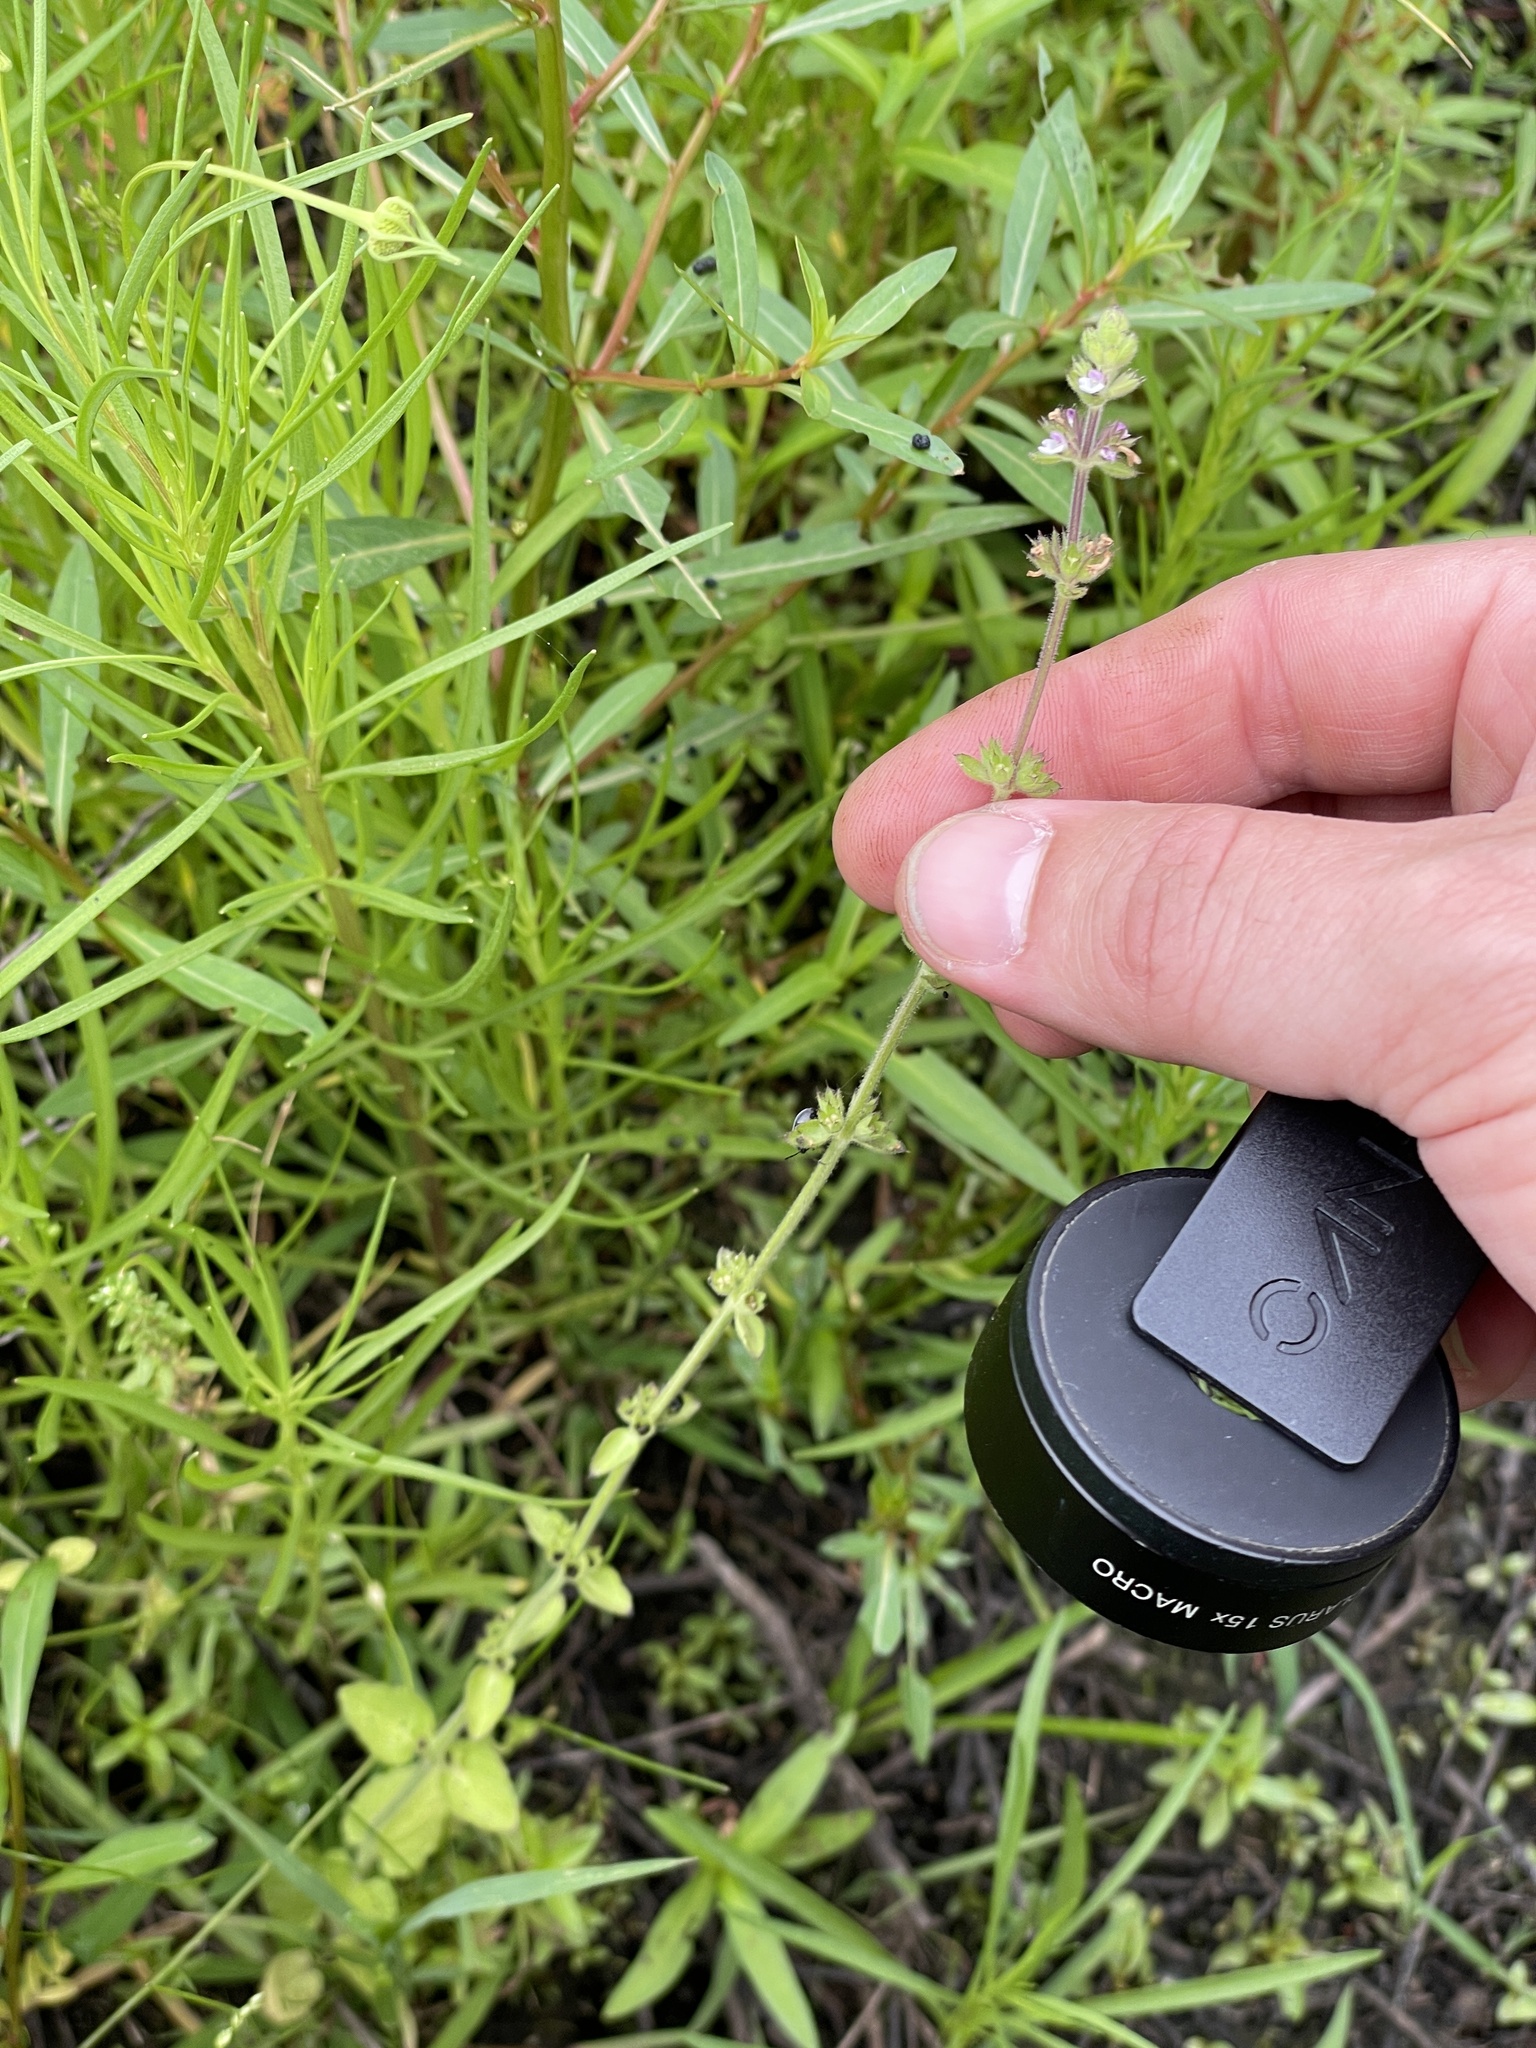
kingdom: Plantae
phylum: Tracheophyta
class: Magnoliopsida
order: Lamiales
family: Lamiaceae
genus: Stachys
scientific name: Stachys
